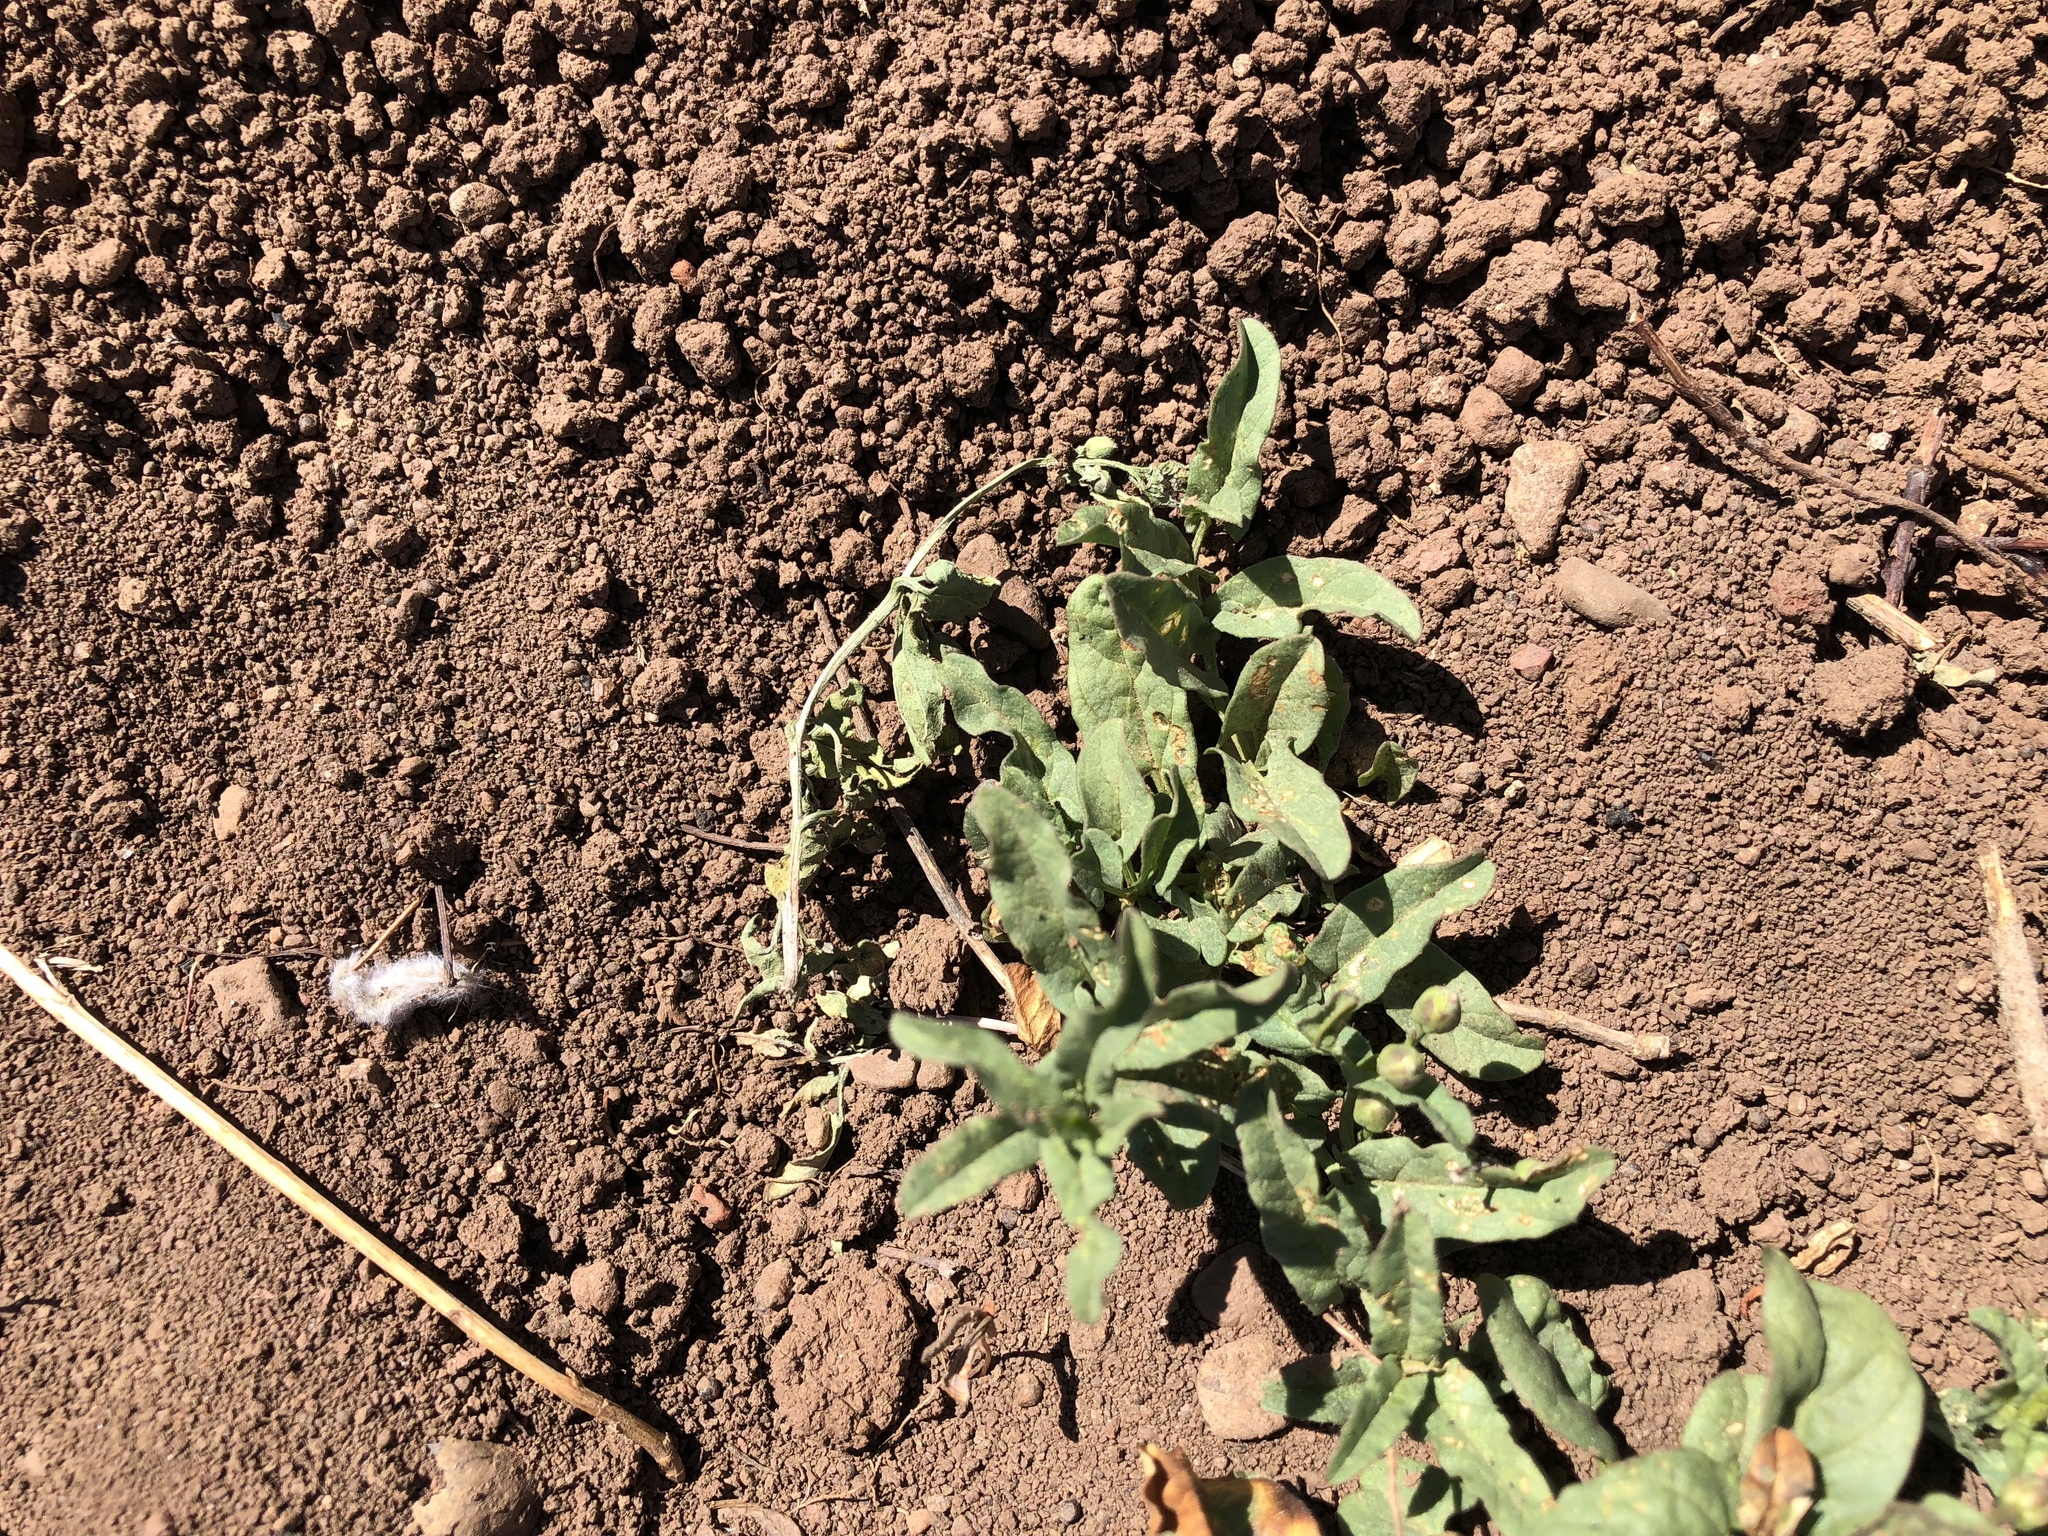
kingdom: Plantae
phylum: Tracheophyta
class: Magnoliopsida
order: Solanales
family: Convolvulaceae
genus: Convolvulus
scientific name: Convolvulus arvensis
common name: Field bindweed
